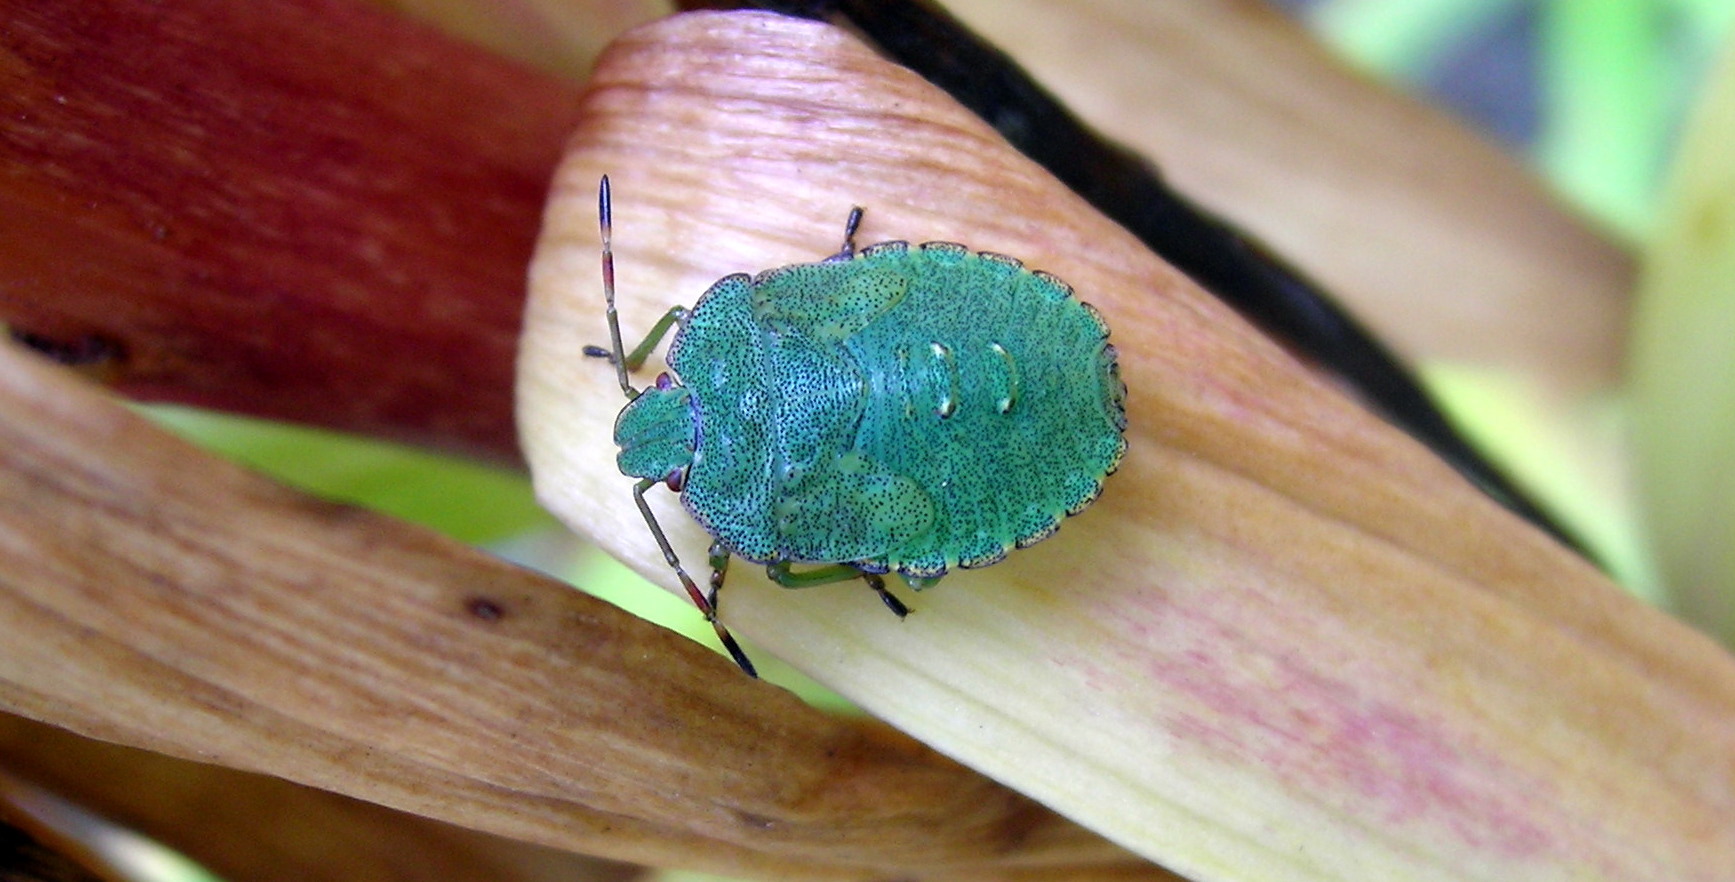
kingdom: Animalia
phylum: Arthropoda
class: Insecta
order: Hemiptera
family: Pentatomidae
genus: Palomena
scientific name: Palomena prasina
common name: Green shieldbug
